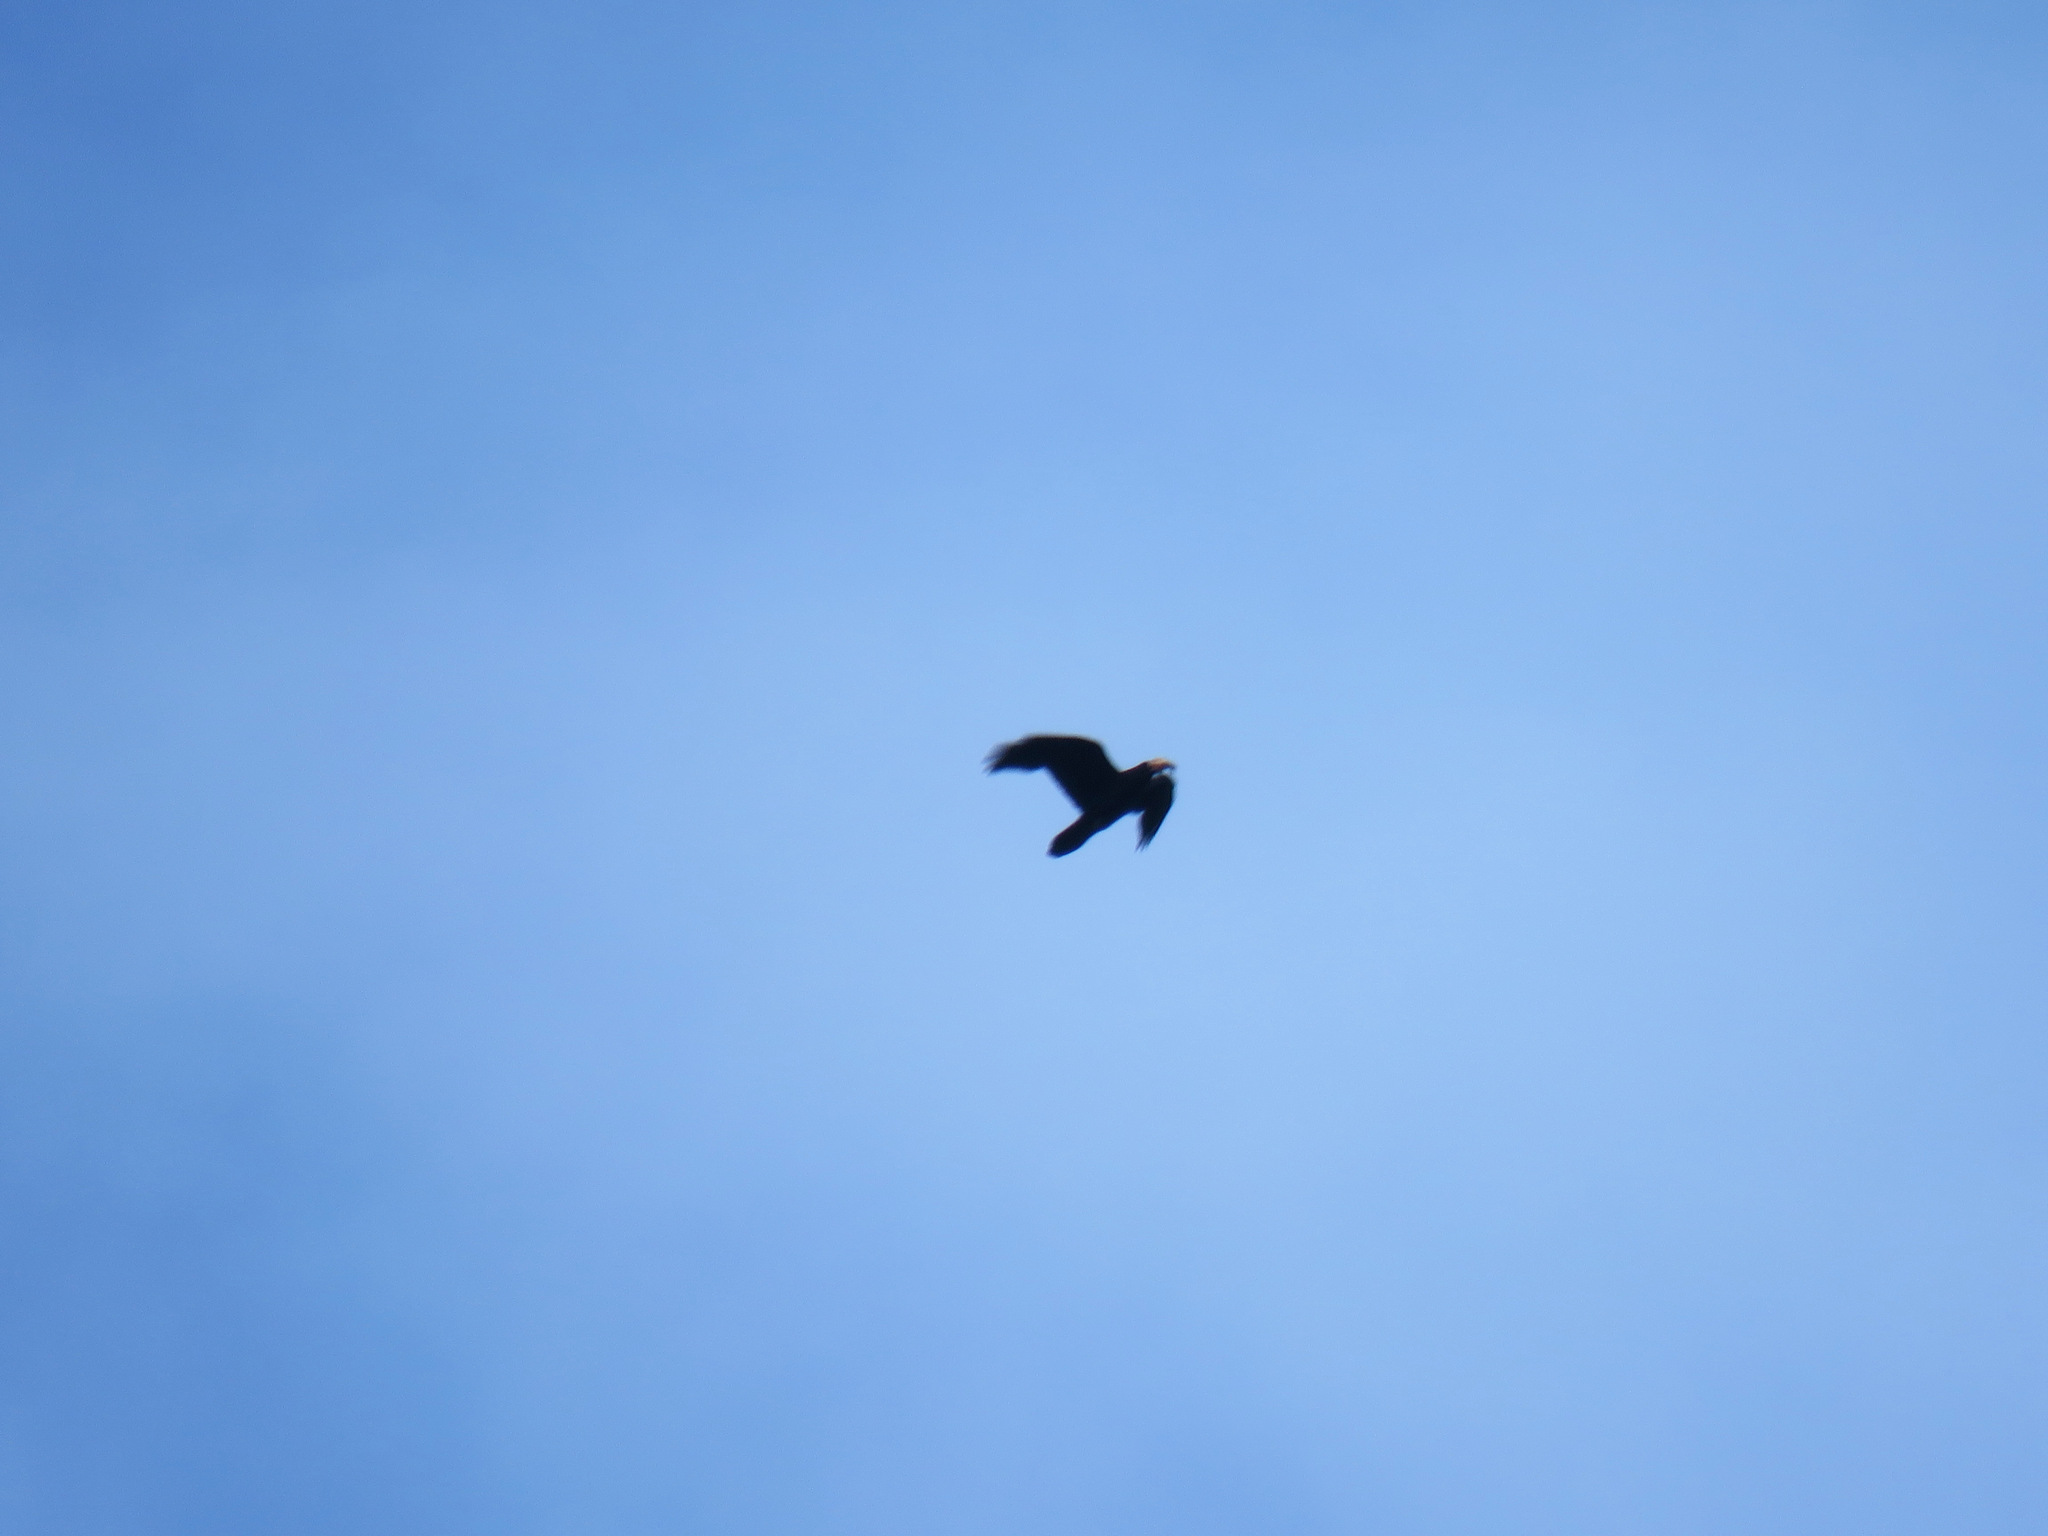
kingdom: Animalia
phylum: Chordata
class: Aves
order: Passeriformes
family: Corvidae
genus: Corvus
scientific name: Corvus corax
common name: Common raven
